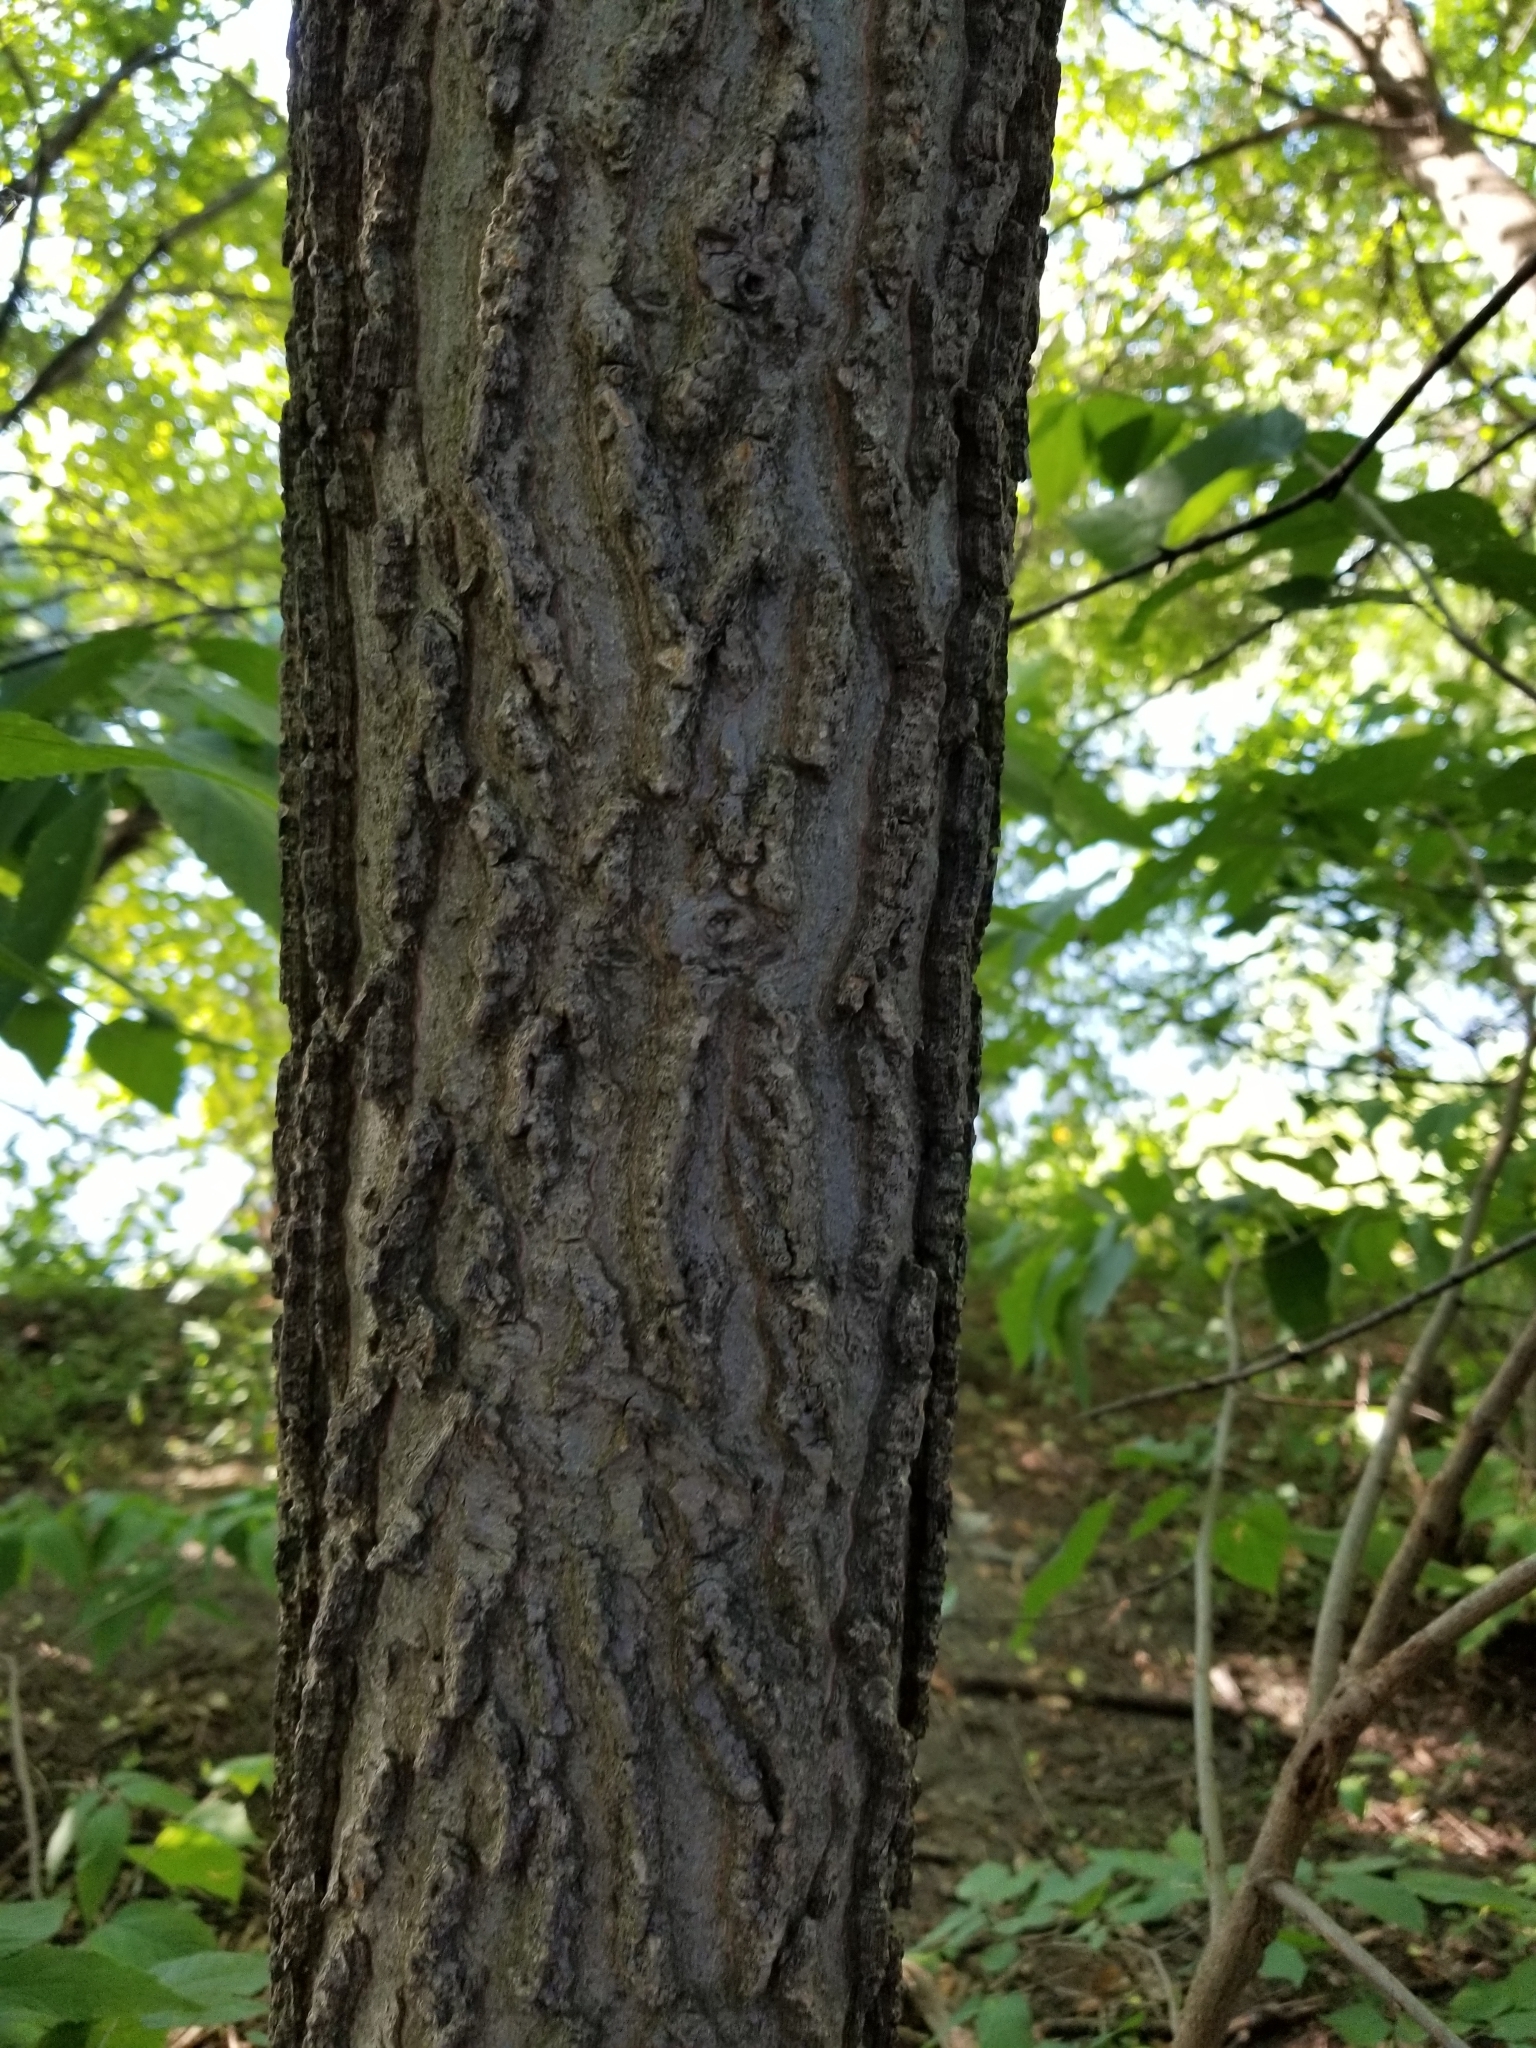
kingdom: Plantae
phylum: Tracheophyta
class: Magnoliopsida
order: Rosales
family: Cannabaceae
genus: Celtis
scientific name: Celtis occidentalis
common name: Common hackberry
